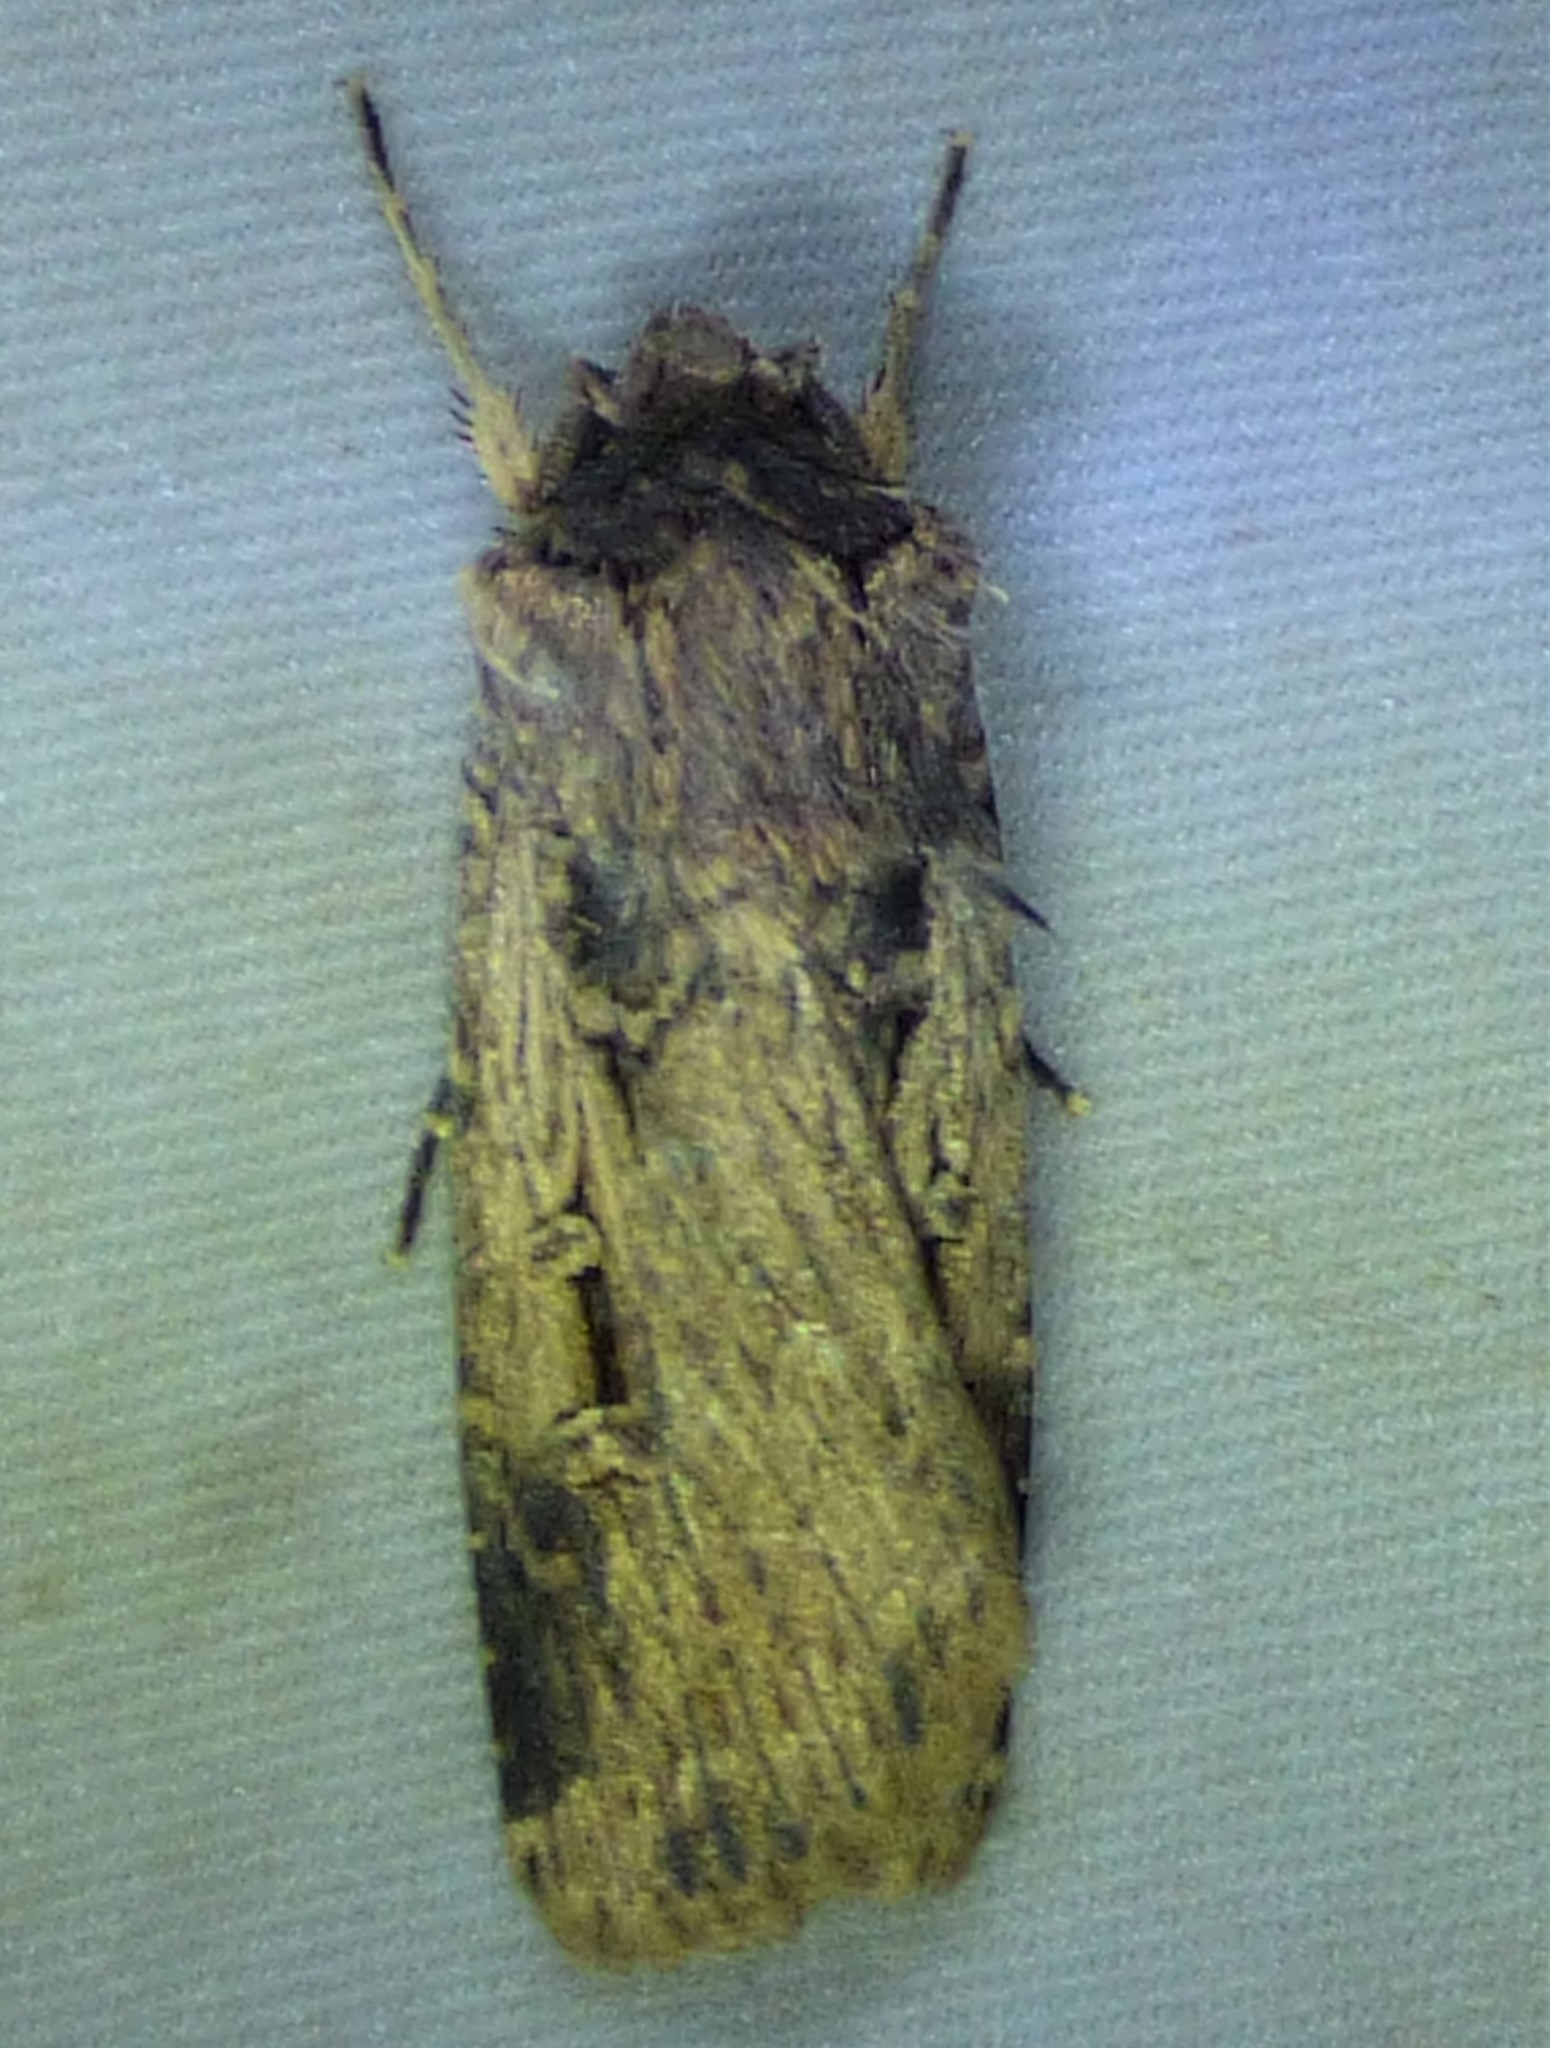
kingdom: Animalia
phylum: Arthropoda
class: Insecta
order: Lepidoptera
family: Noctuidae
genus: Feltia
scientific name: Feltia subterranea
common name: Granulate cutworm
